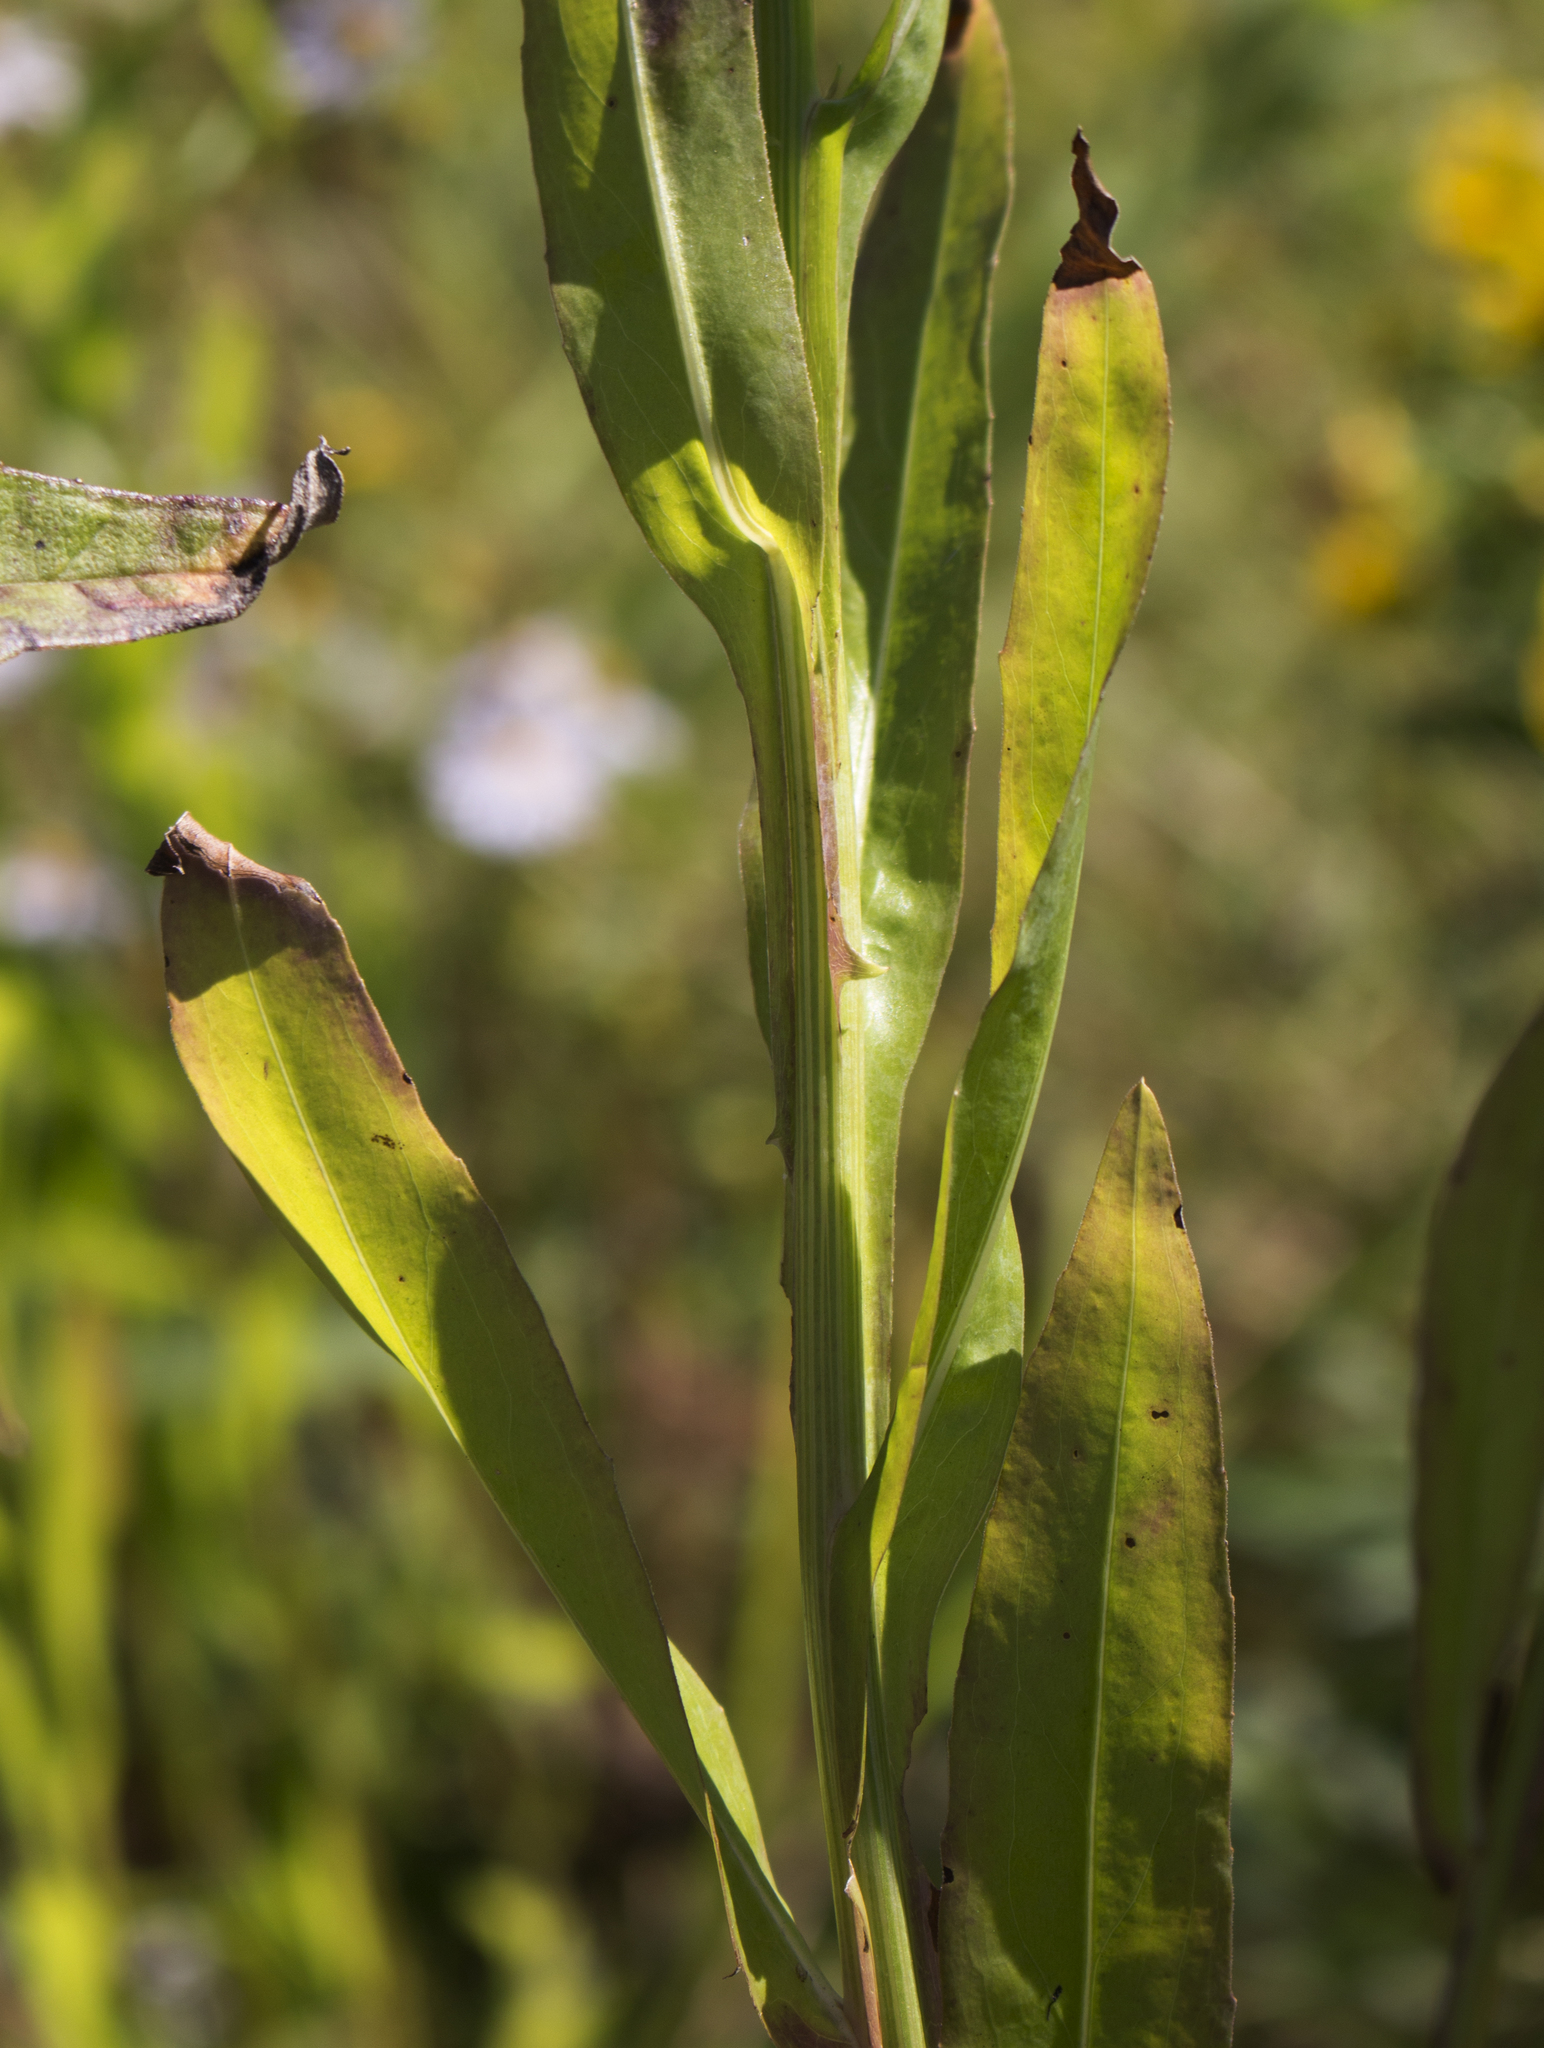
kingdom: Plantae
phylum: Tracheophyta
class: Magnoliopsida
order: Asterales
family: Asteraceae
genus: Boltonia
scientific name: Boltonia decurrens
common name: Decurrent false aster
